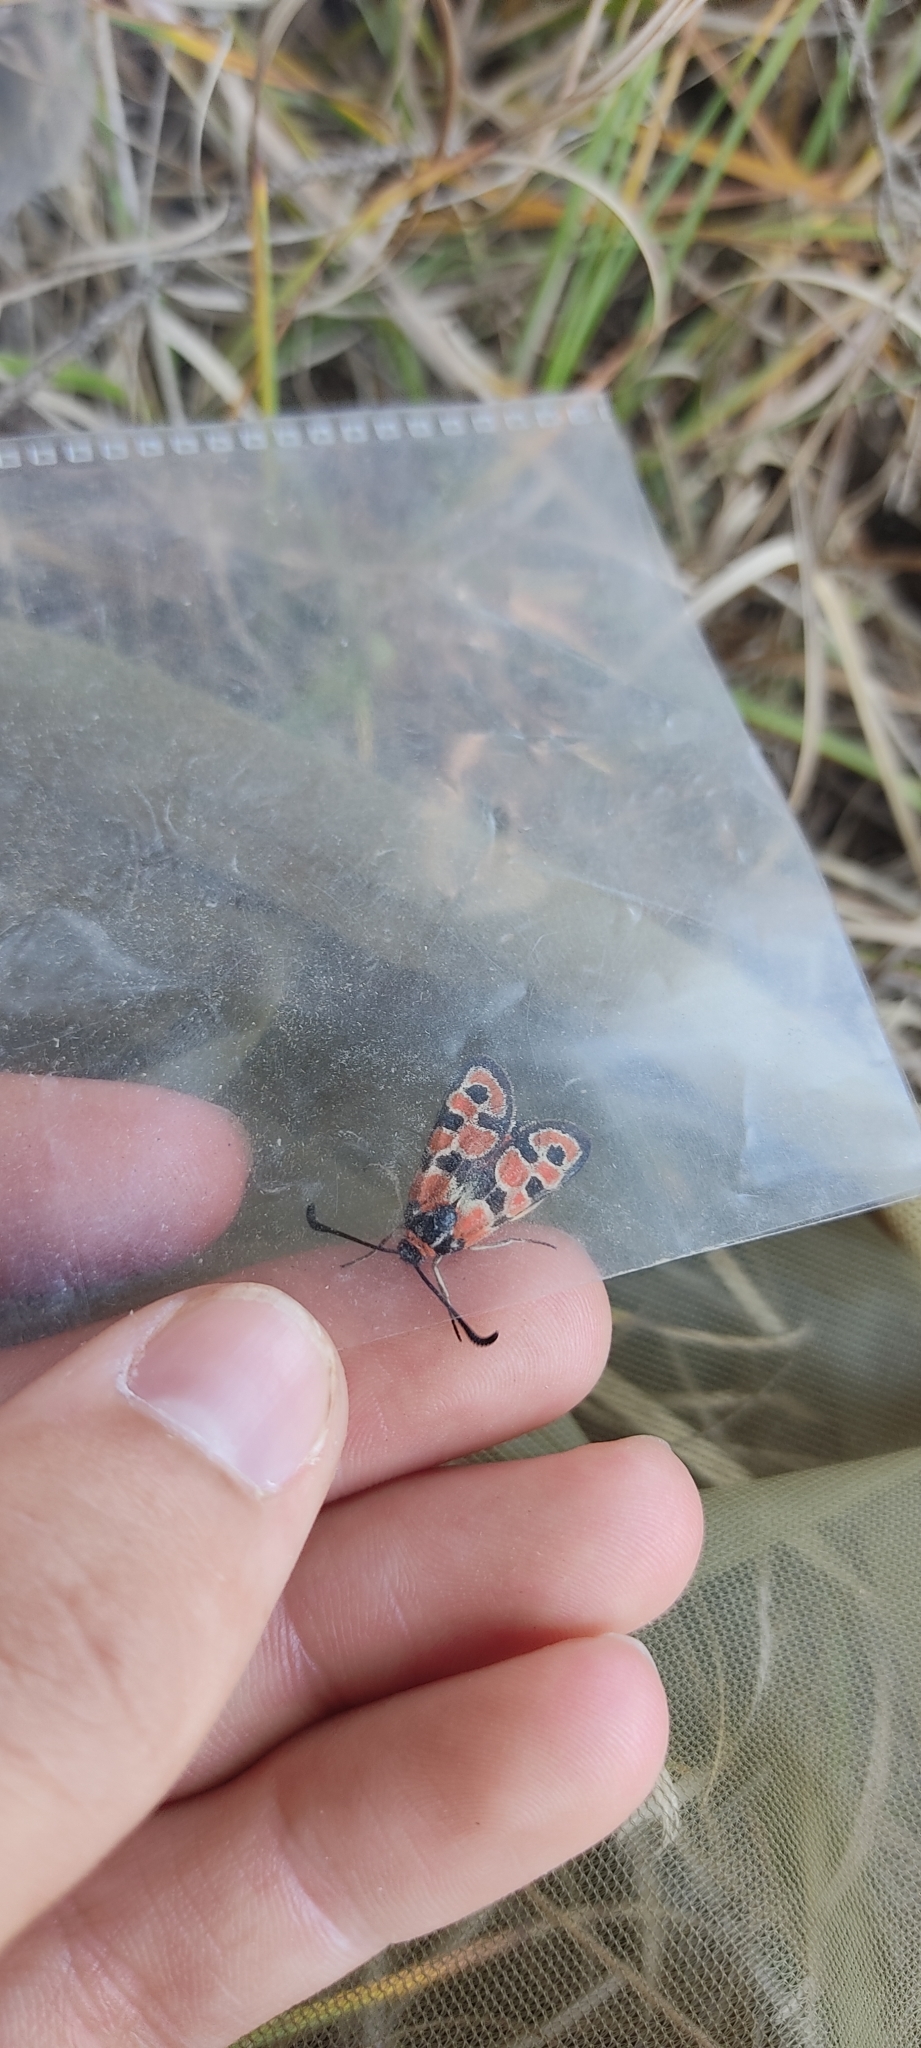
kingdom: Animalia
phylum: Arthropoda
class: Insecta
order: Lepidoptera
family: Zygaenidae
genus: Zygaena
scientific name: Zygaena fausta
